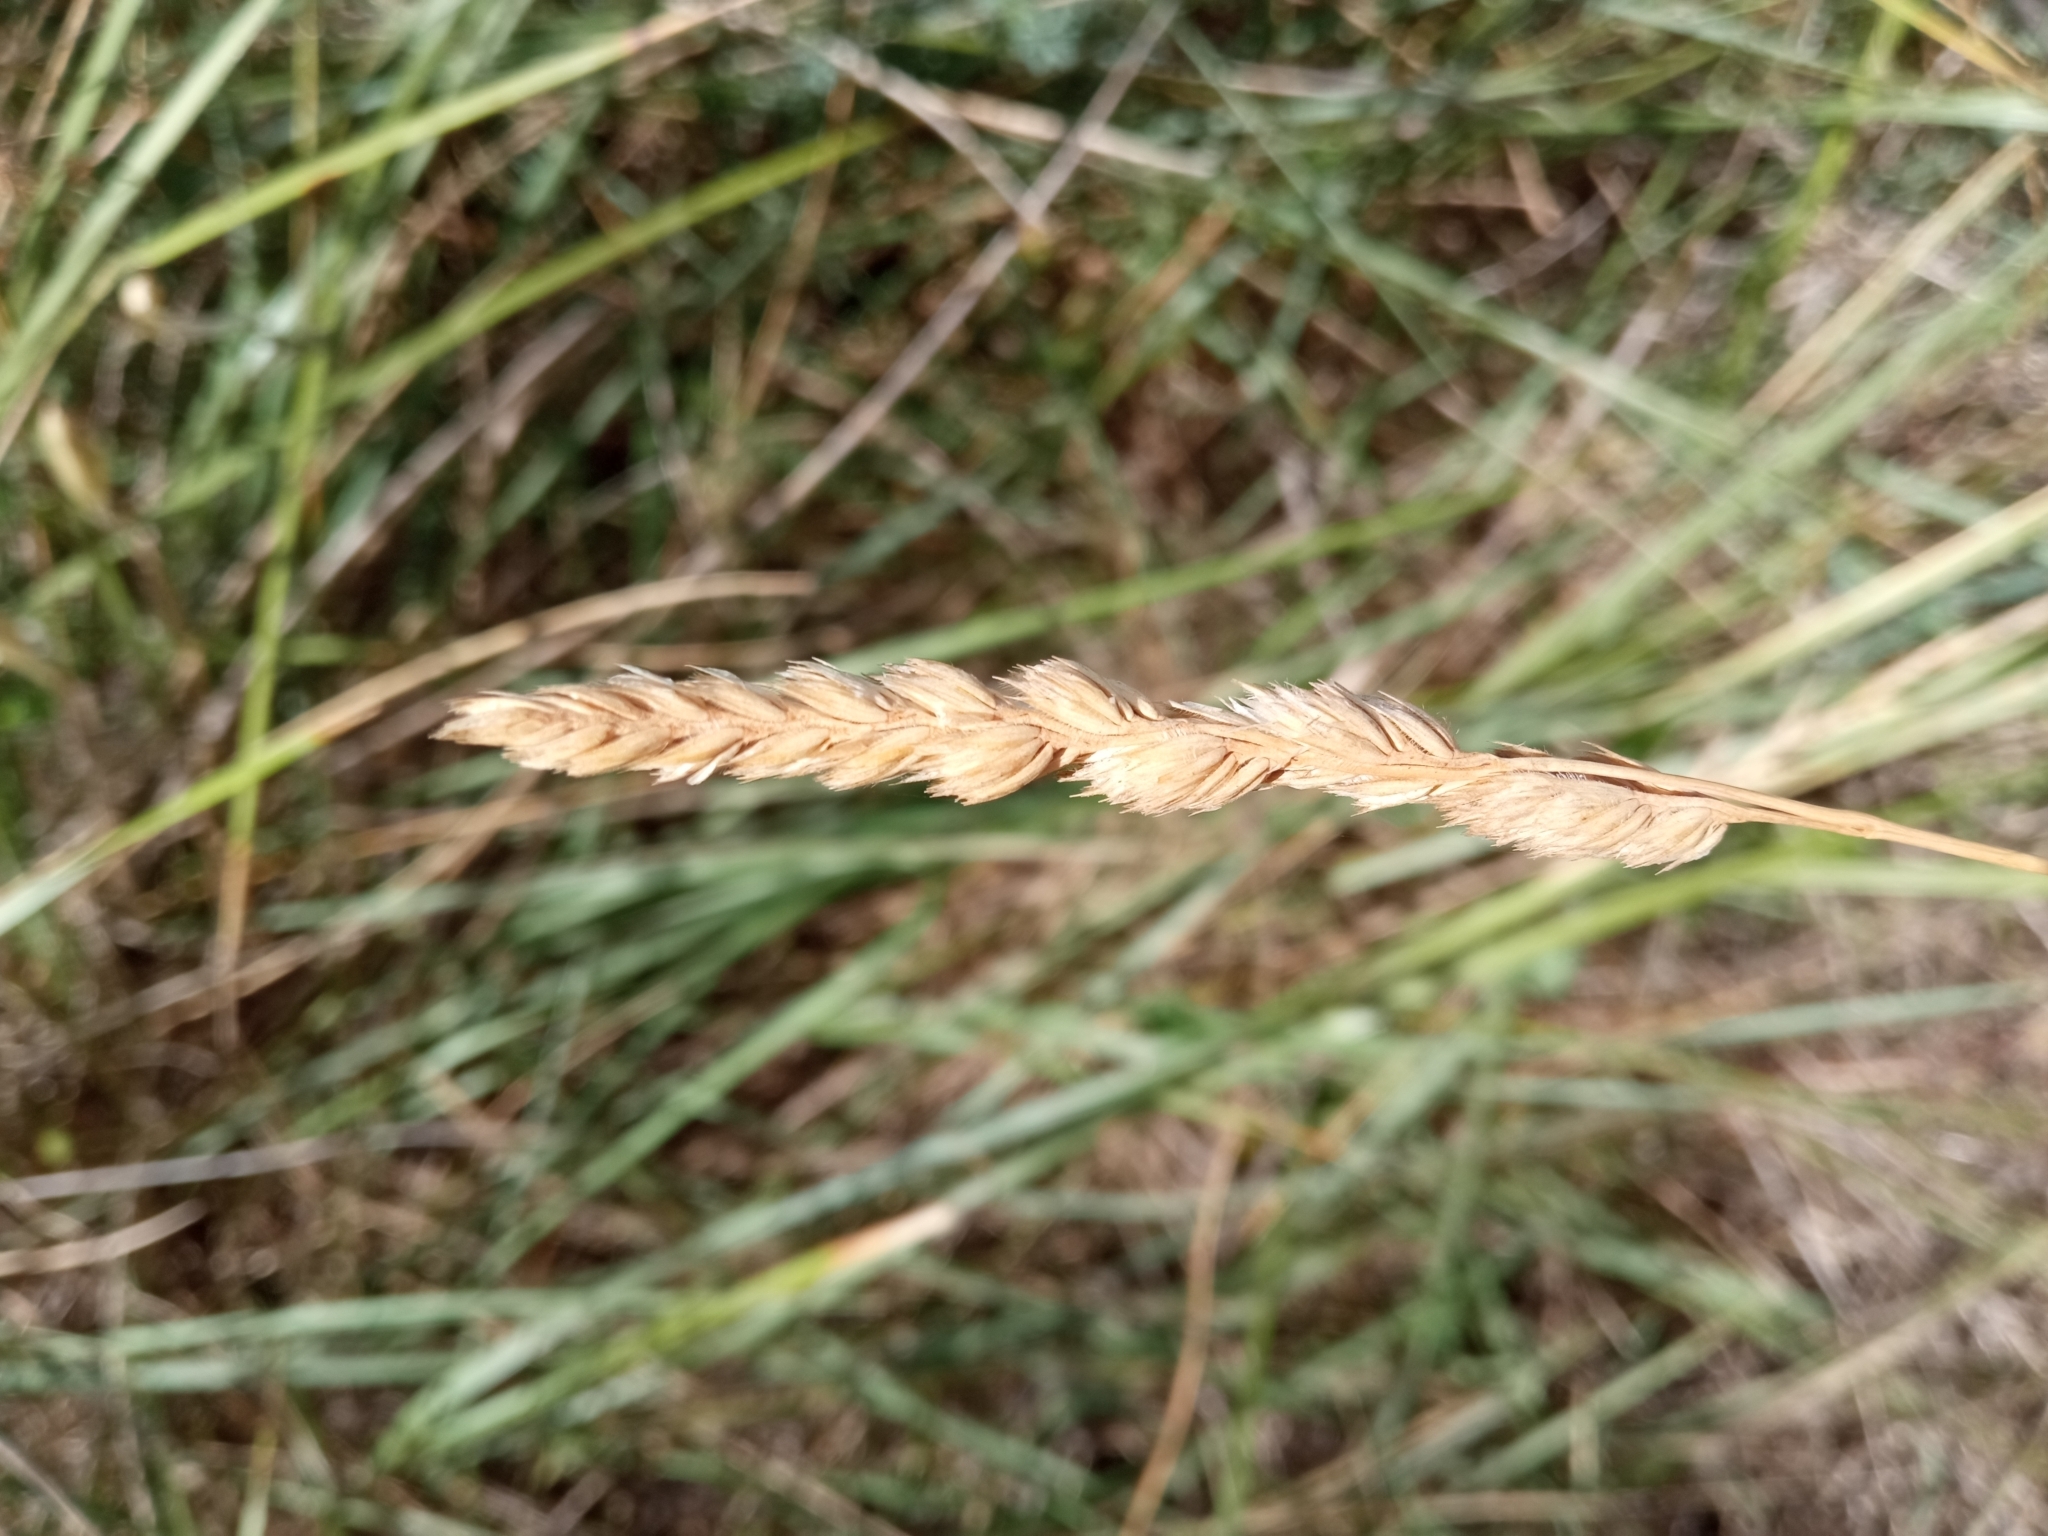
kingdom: Plantae
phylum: Tracheophyta
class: Liliopsida
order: Poales
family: Poaceae
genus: Dactylis
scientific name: Dactylis glomerata
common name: Orchardgrass
